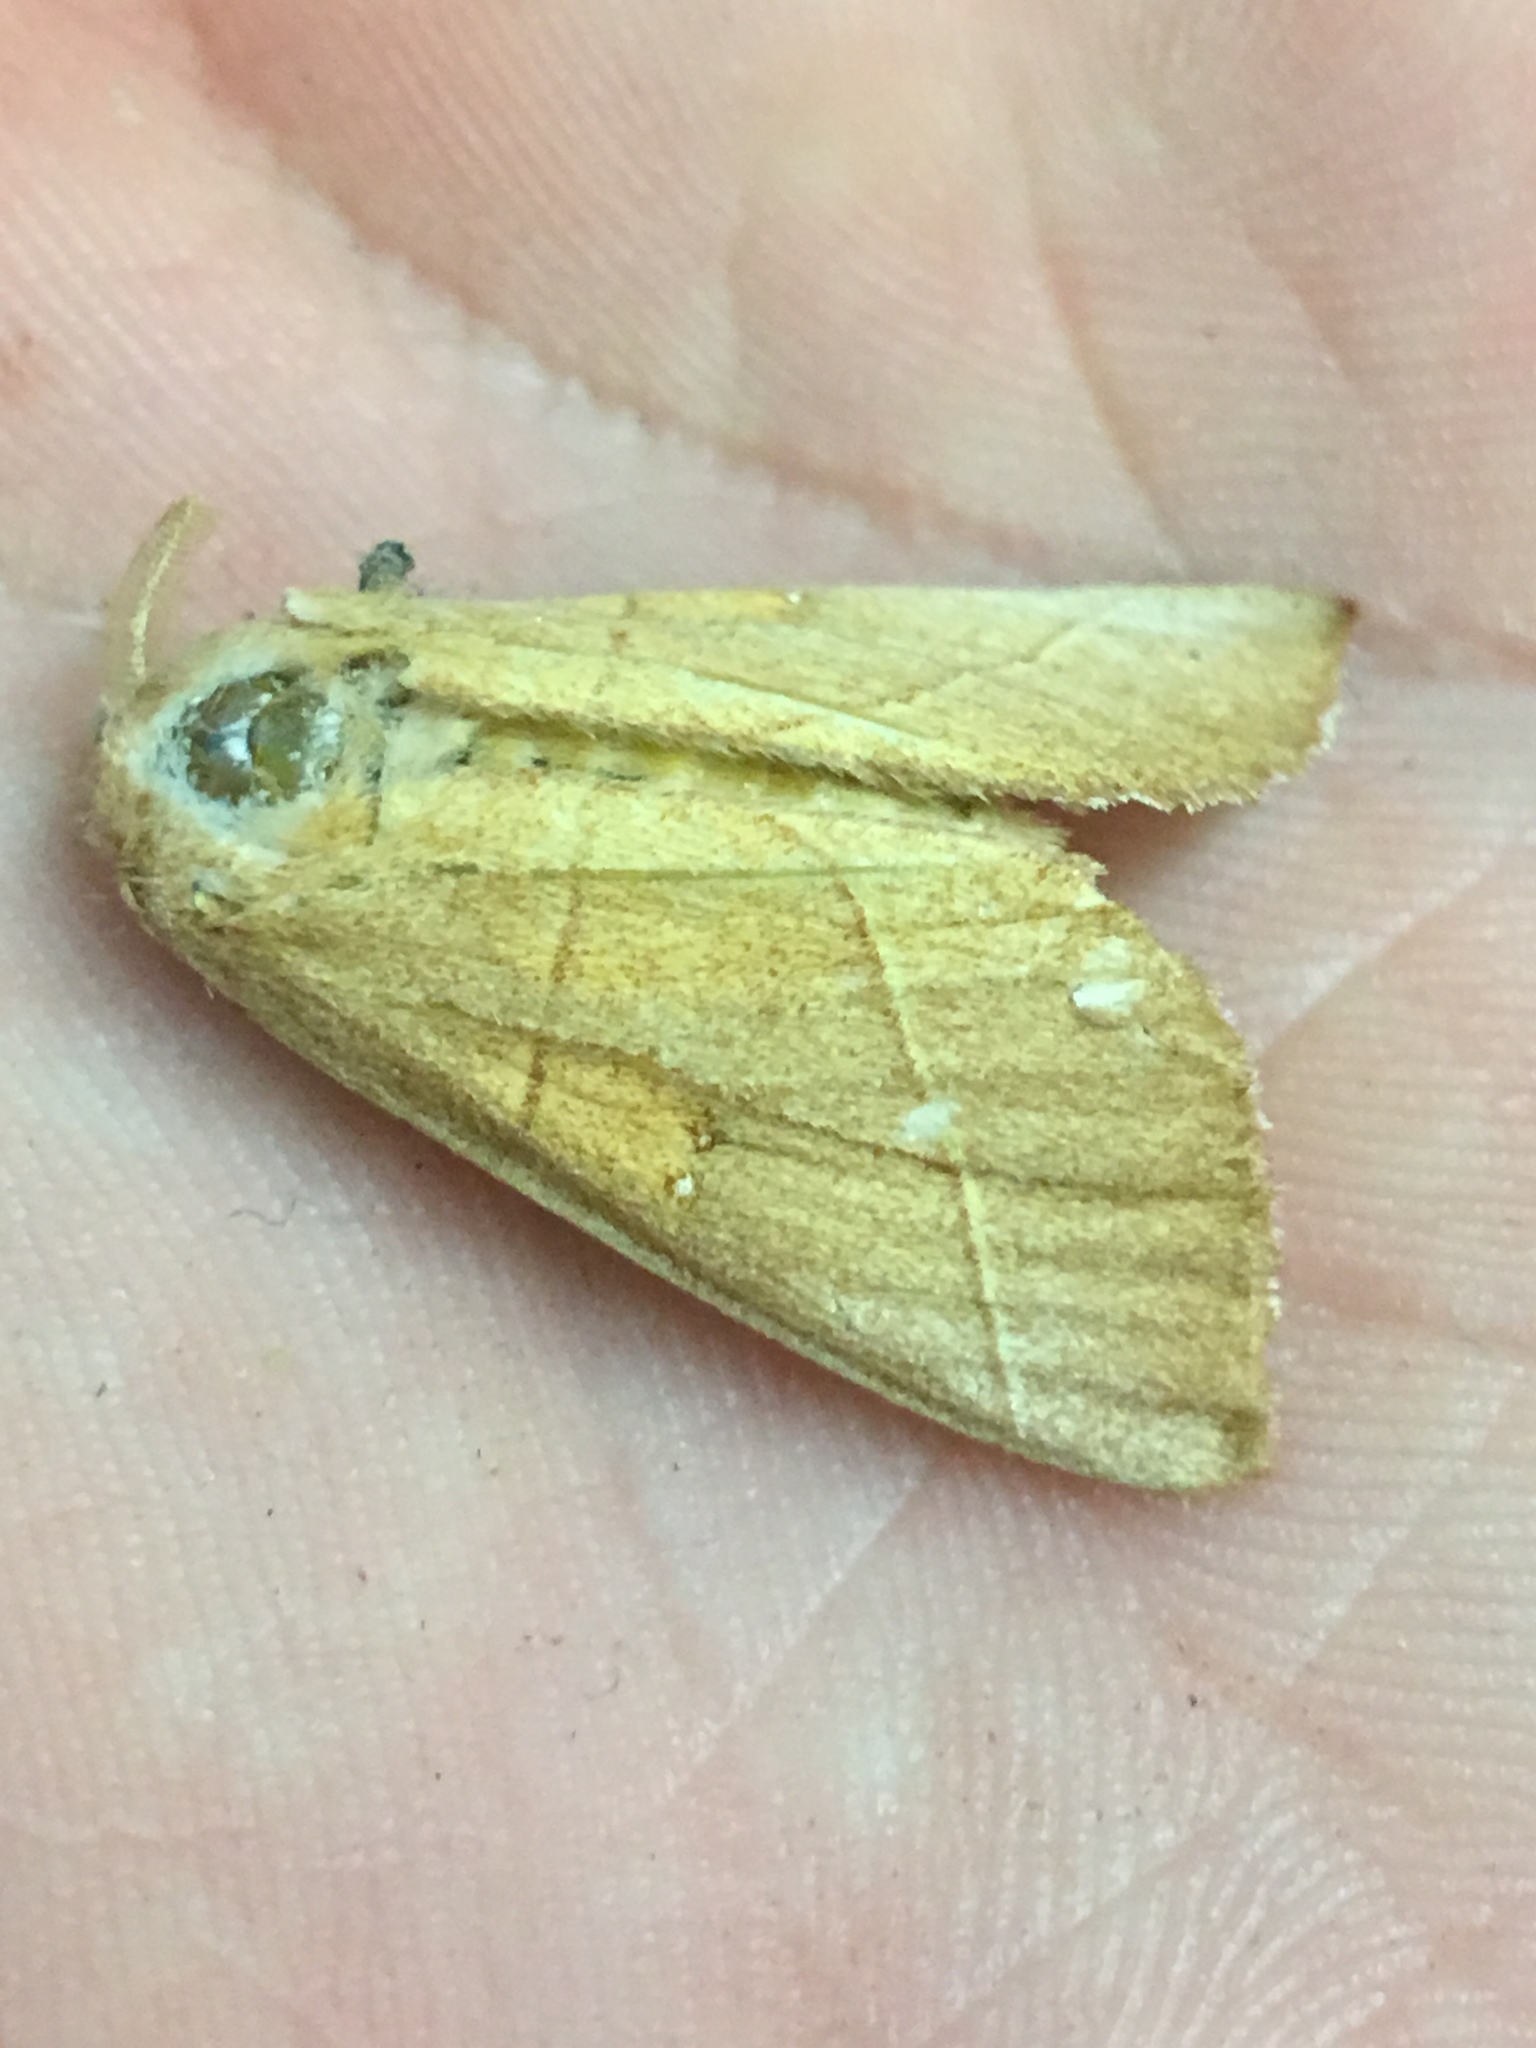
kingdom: Animalia
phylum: Arthropoda
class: Insecta
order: Lepidoptera
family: Notodontidae
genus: Nadata
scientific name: Nadata gibbosa
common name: White-dotted prominent
